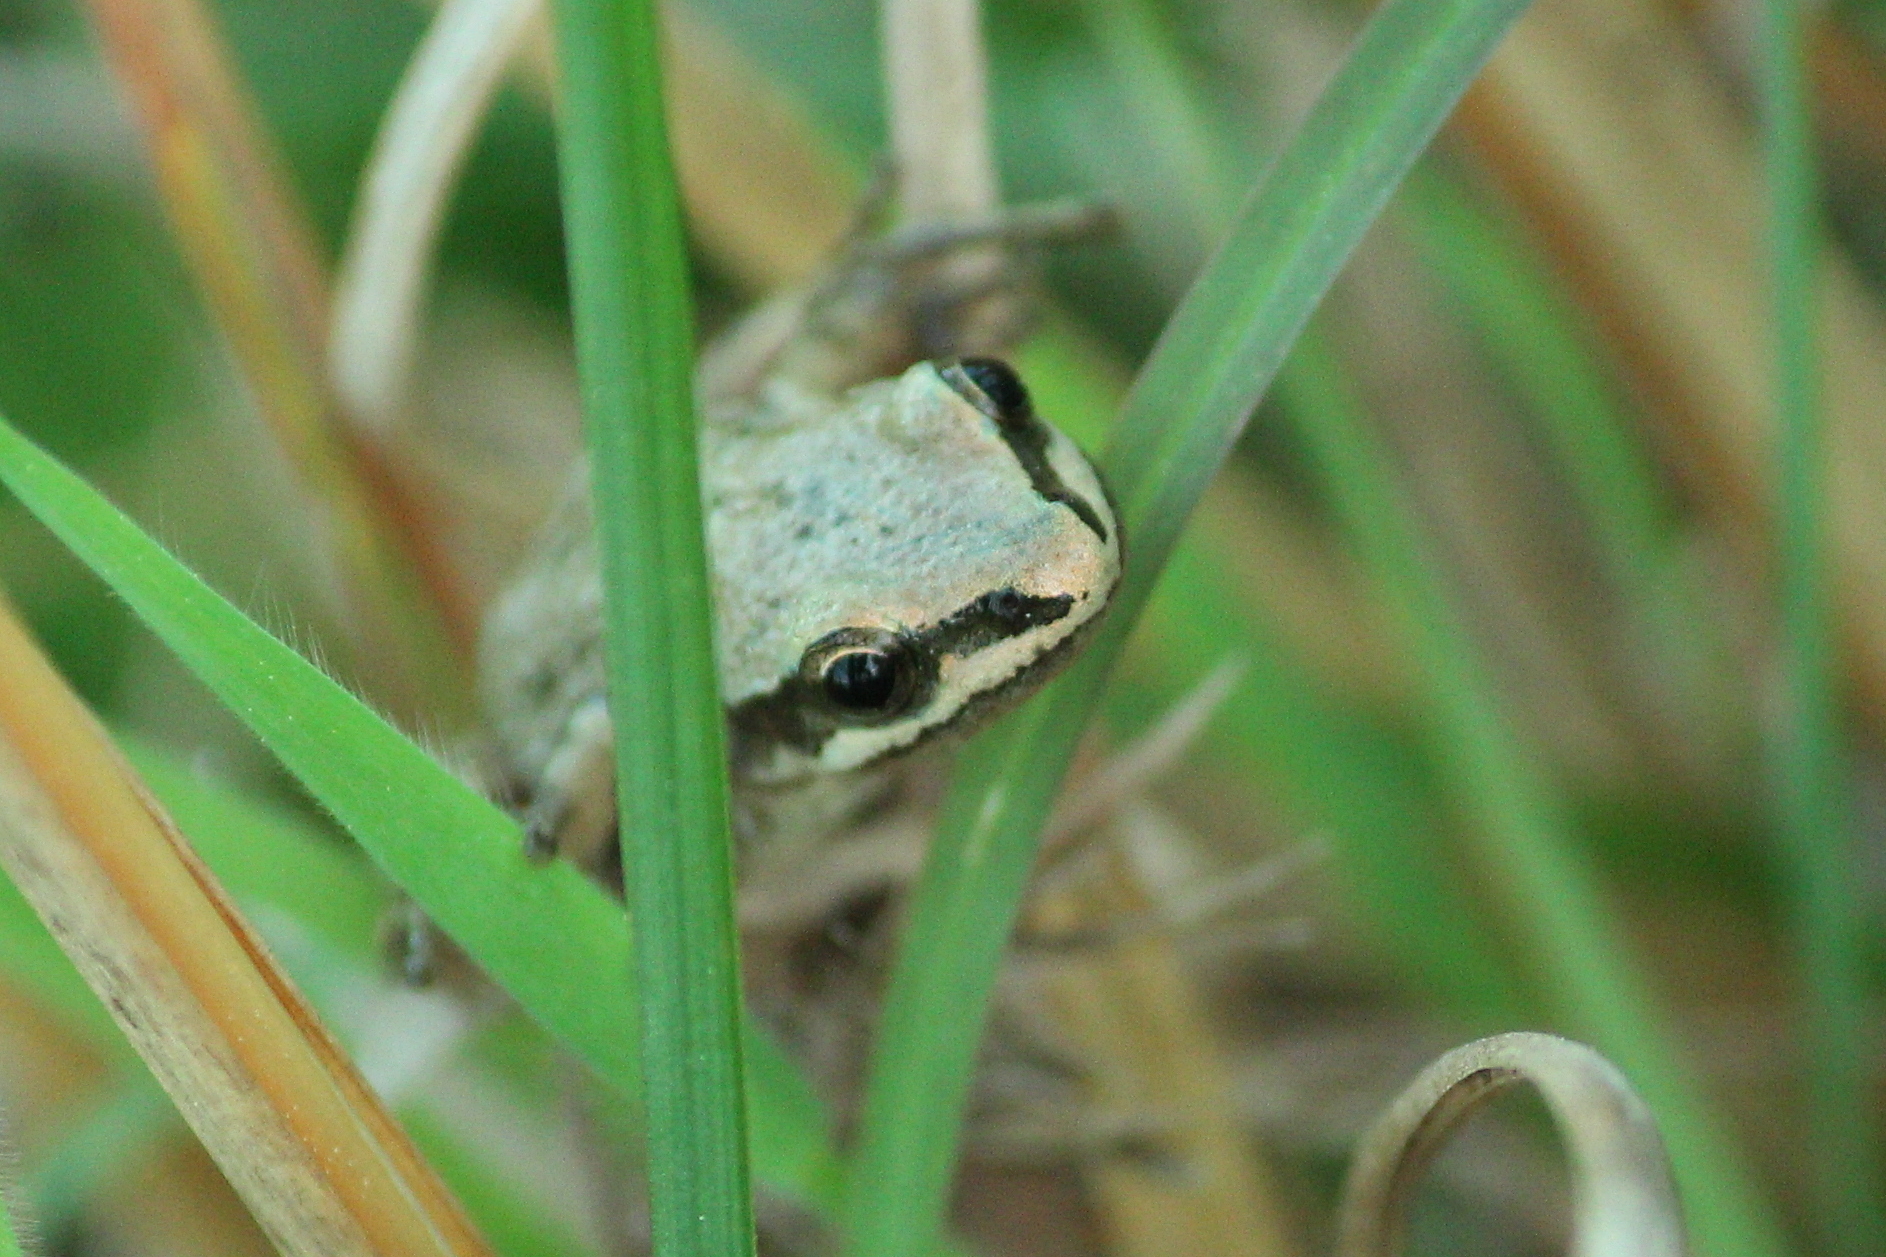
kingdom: Animalia
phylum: Chordata
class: Amphibia
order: Anura
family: Hylidae
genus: Pseudacris
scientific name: Pseudacris fouquettei
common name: Cajun chorus frog
